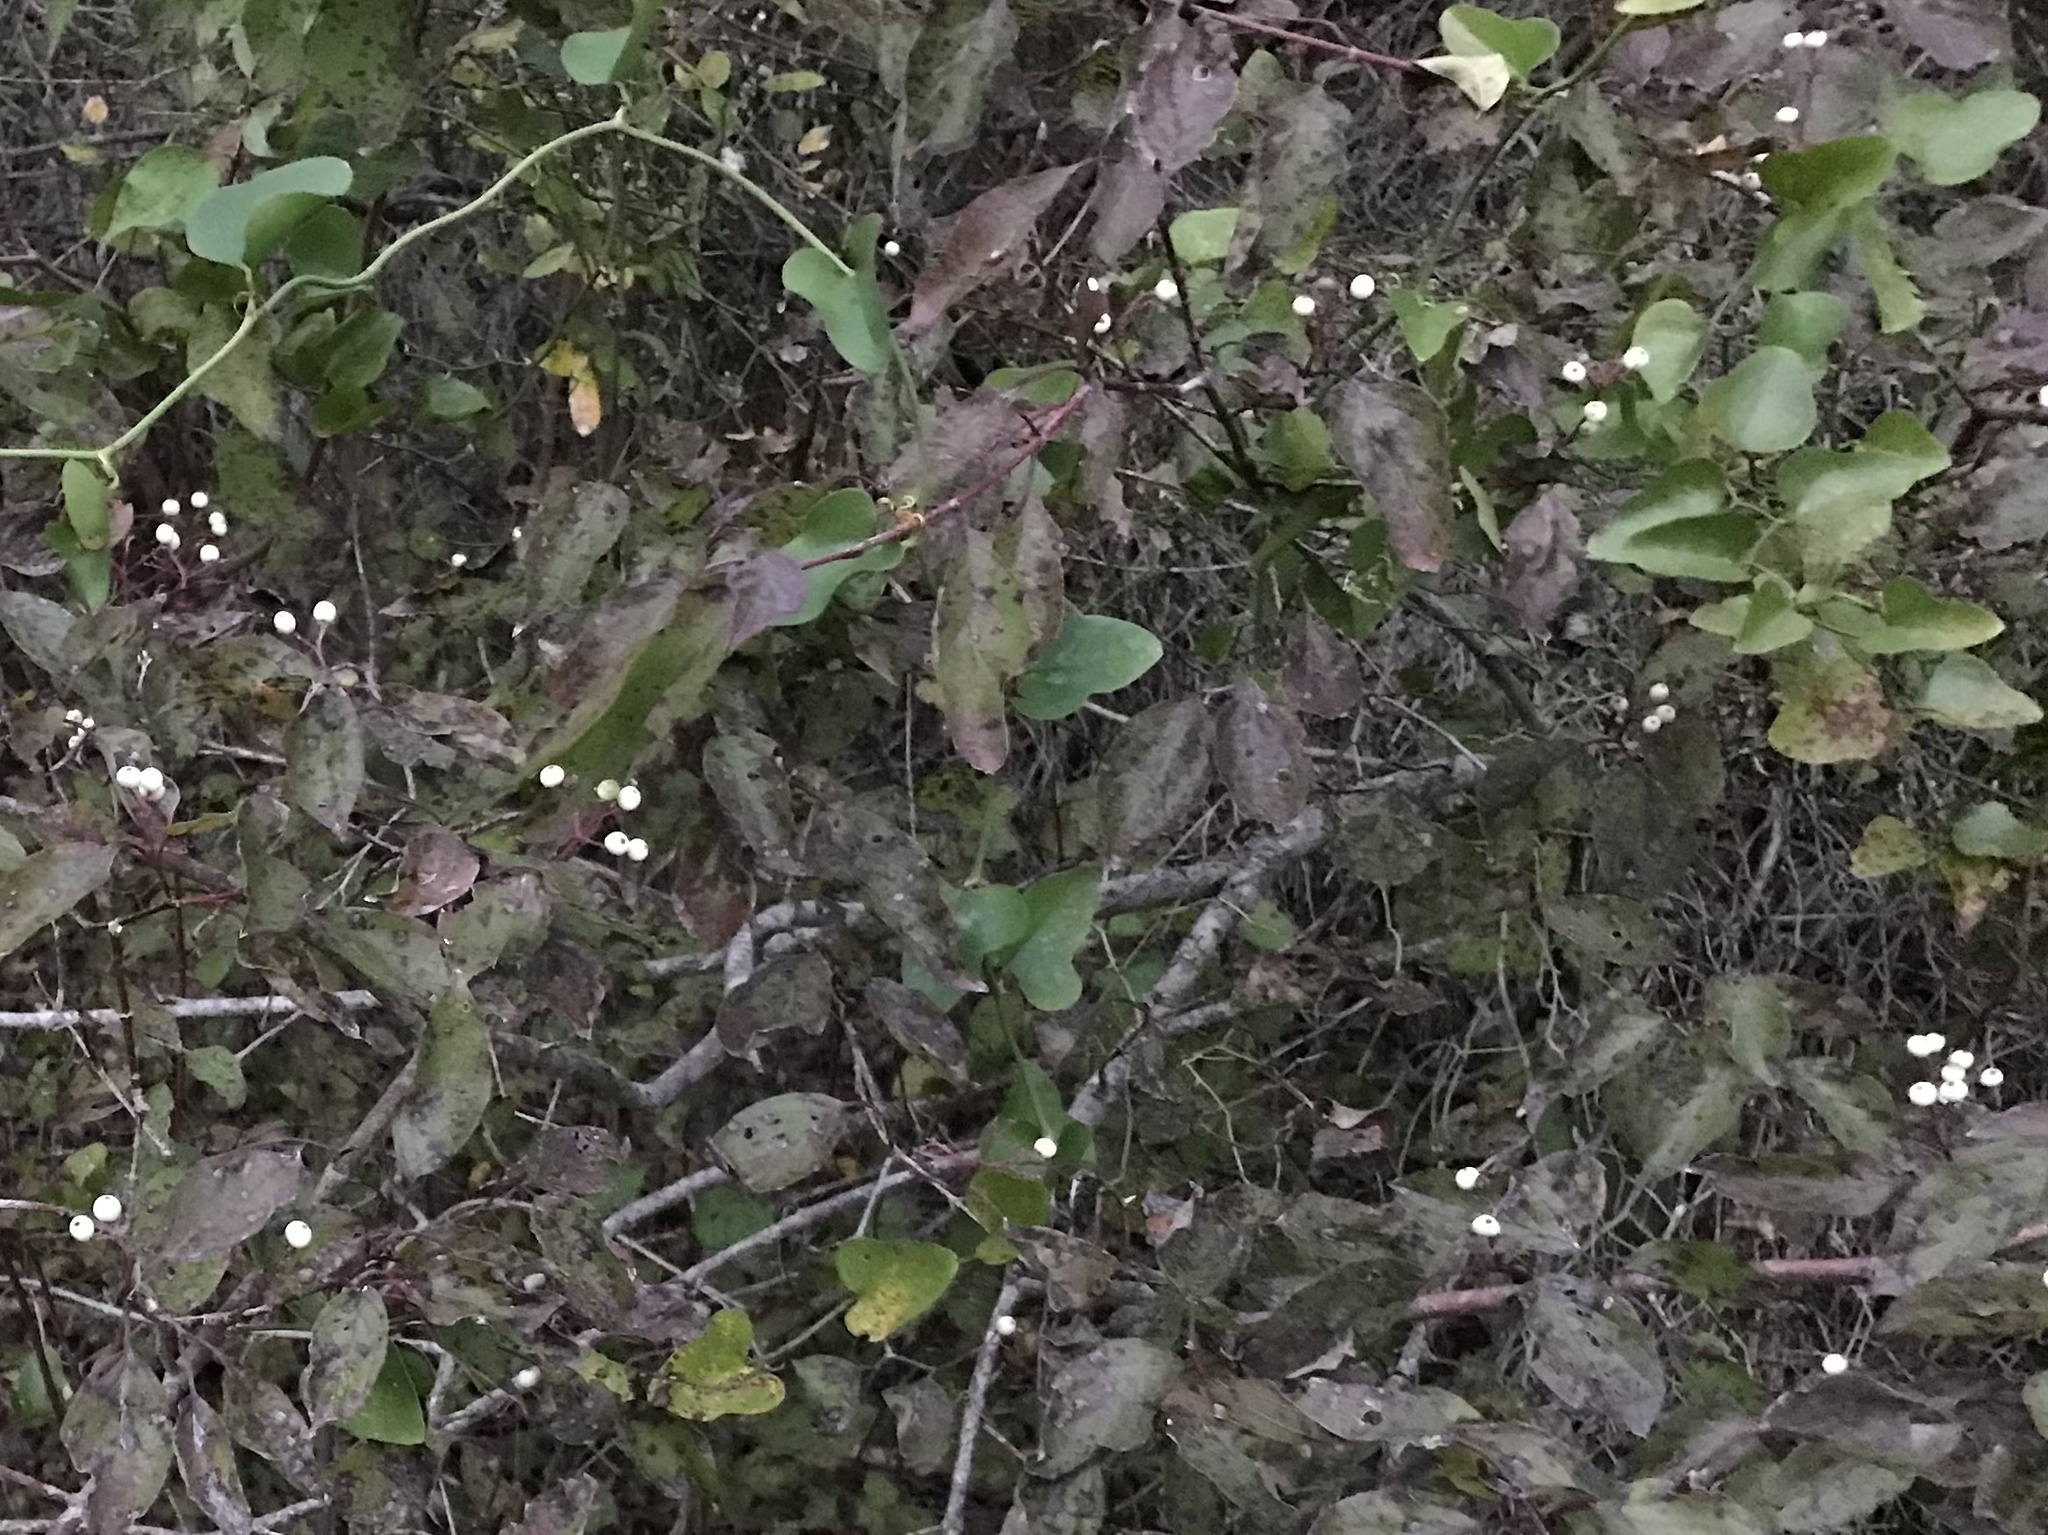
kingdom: Plantae
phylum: Tracheophyta
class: Liliopsida
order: Liliales
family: Smilacaceae
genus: Smilax
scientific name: Smilax bona-nox
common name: Catbrier
